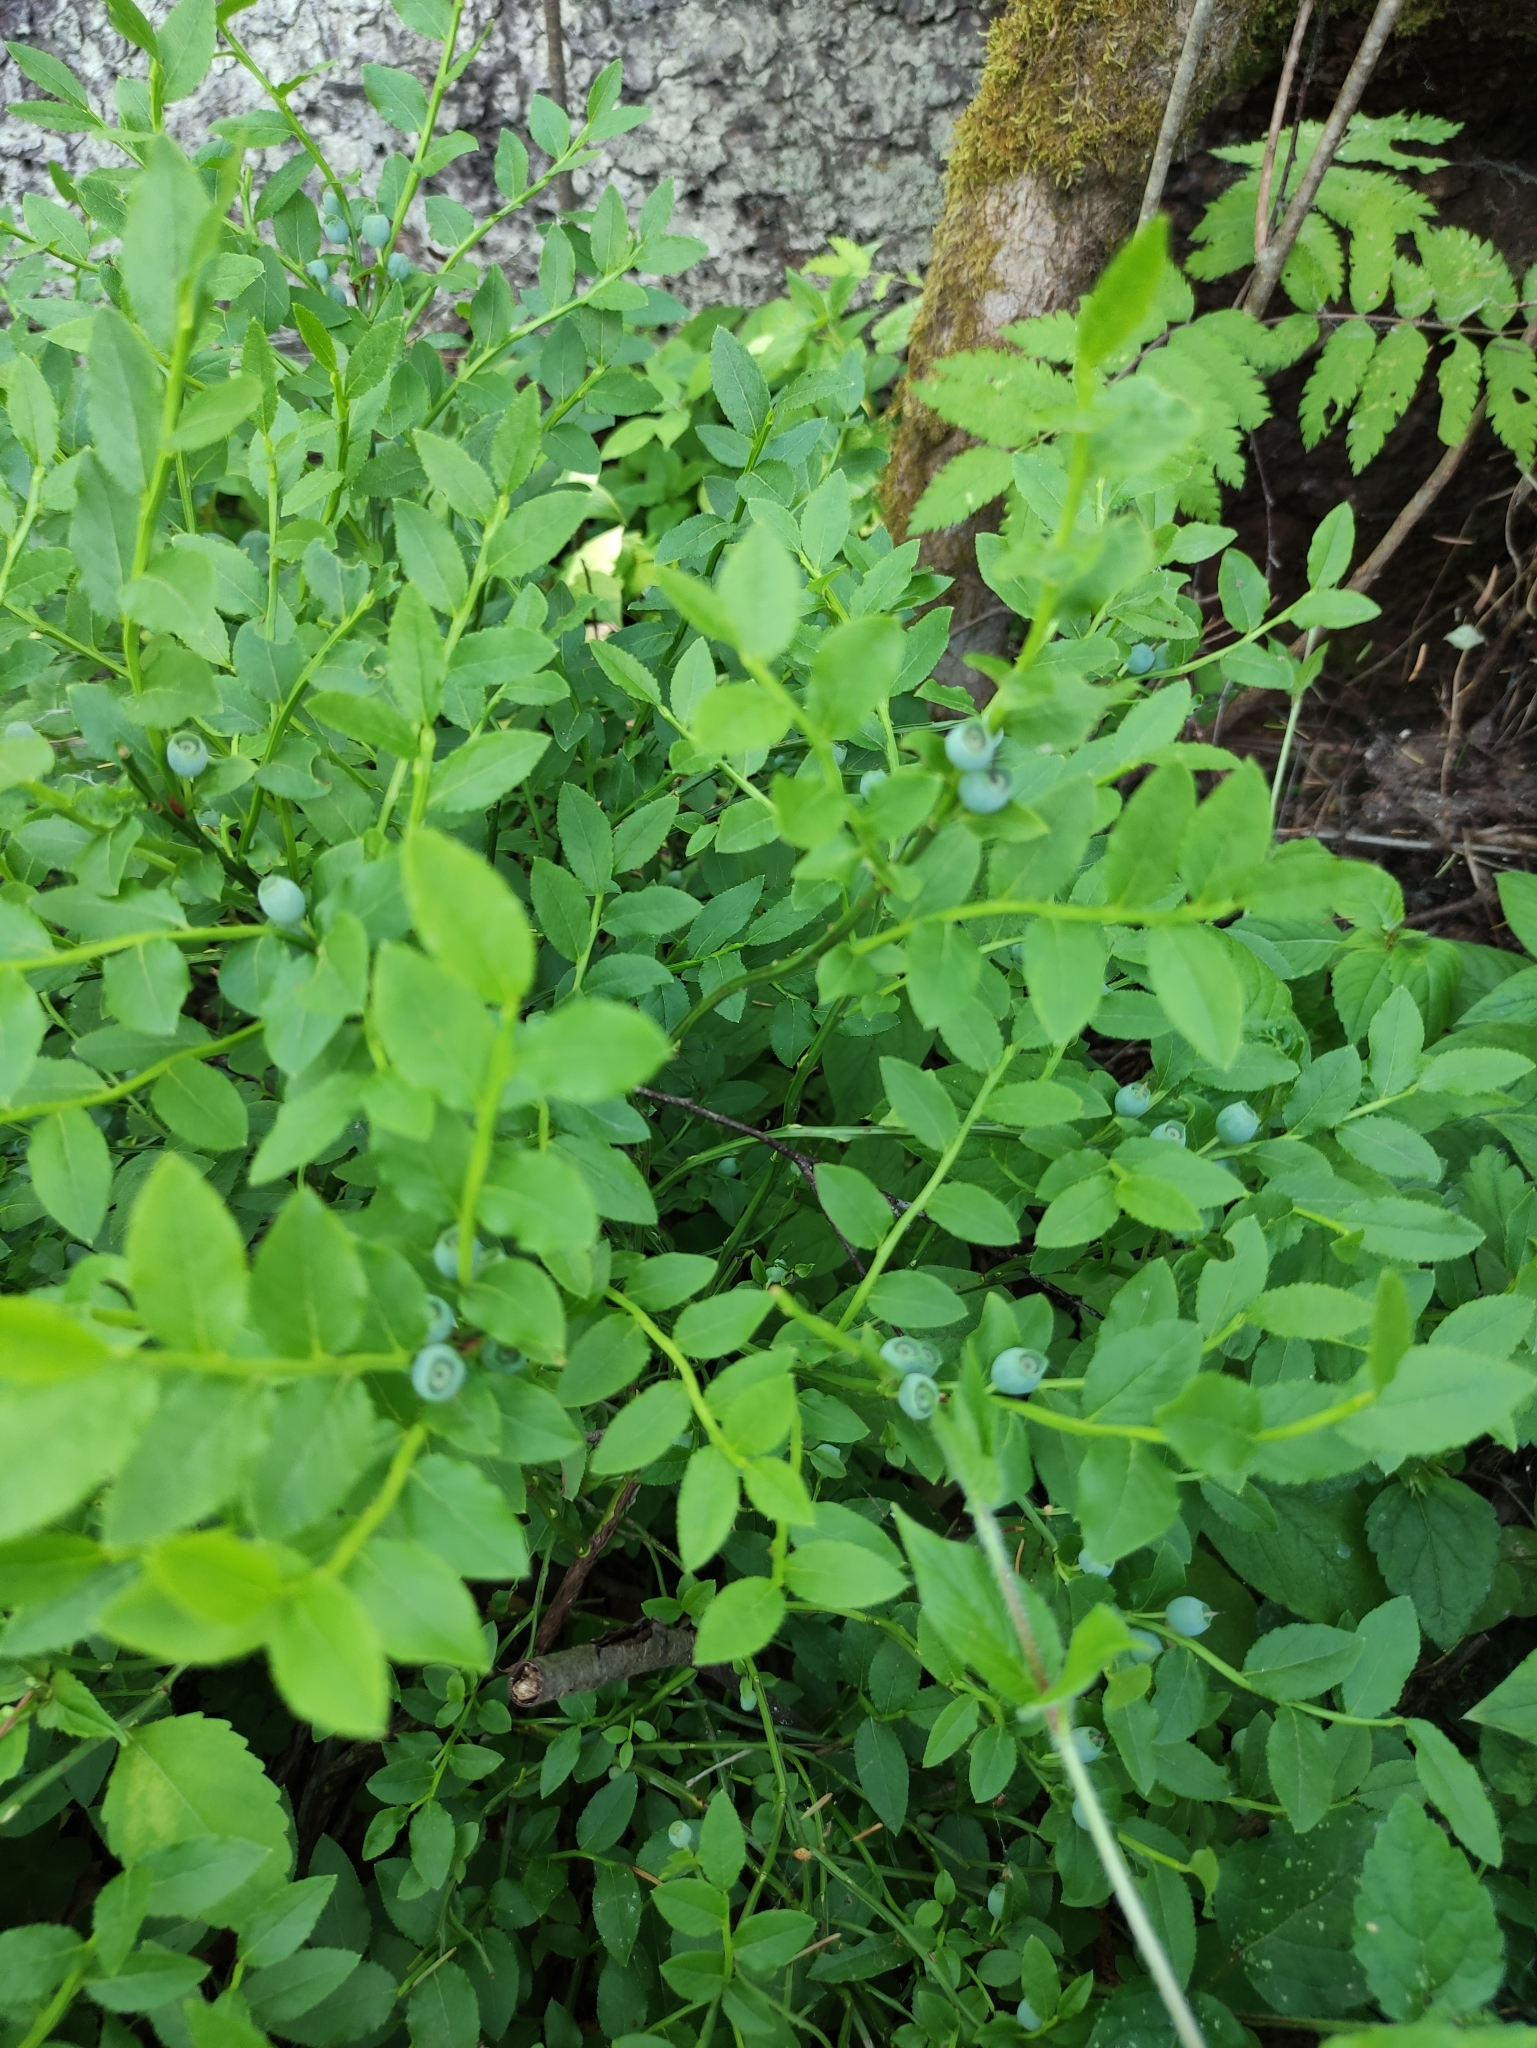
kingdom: Plantae
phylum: Tracheophyta
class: Magnoliopsida
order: Ericales
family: Ericaceae
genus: Vaccinium
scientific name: Vaccinium myrtillus
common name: Bilberry
